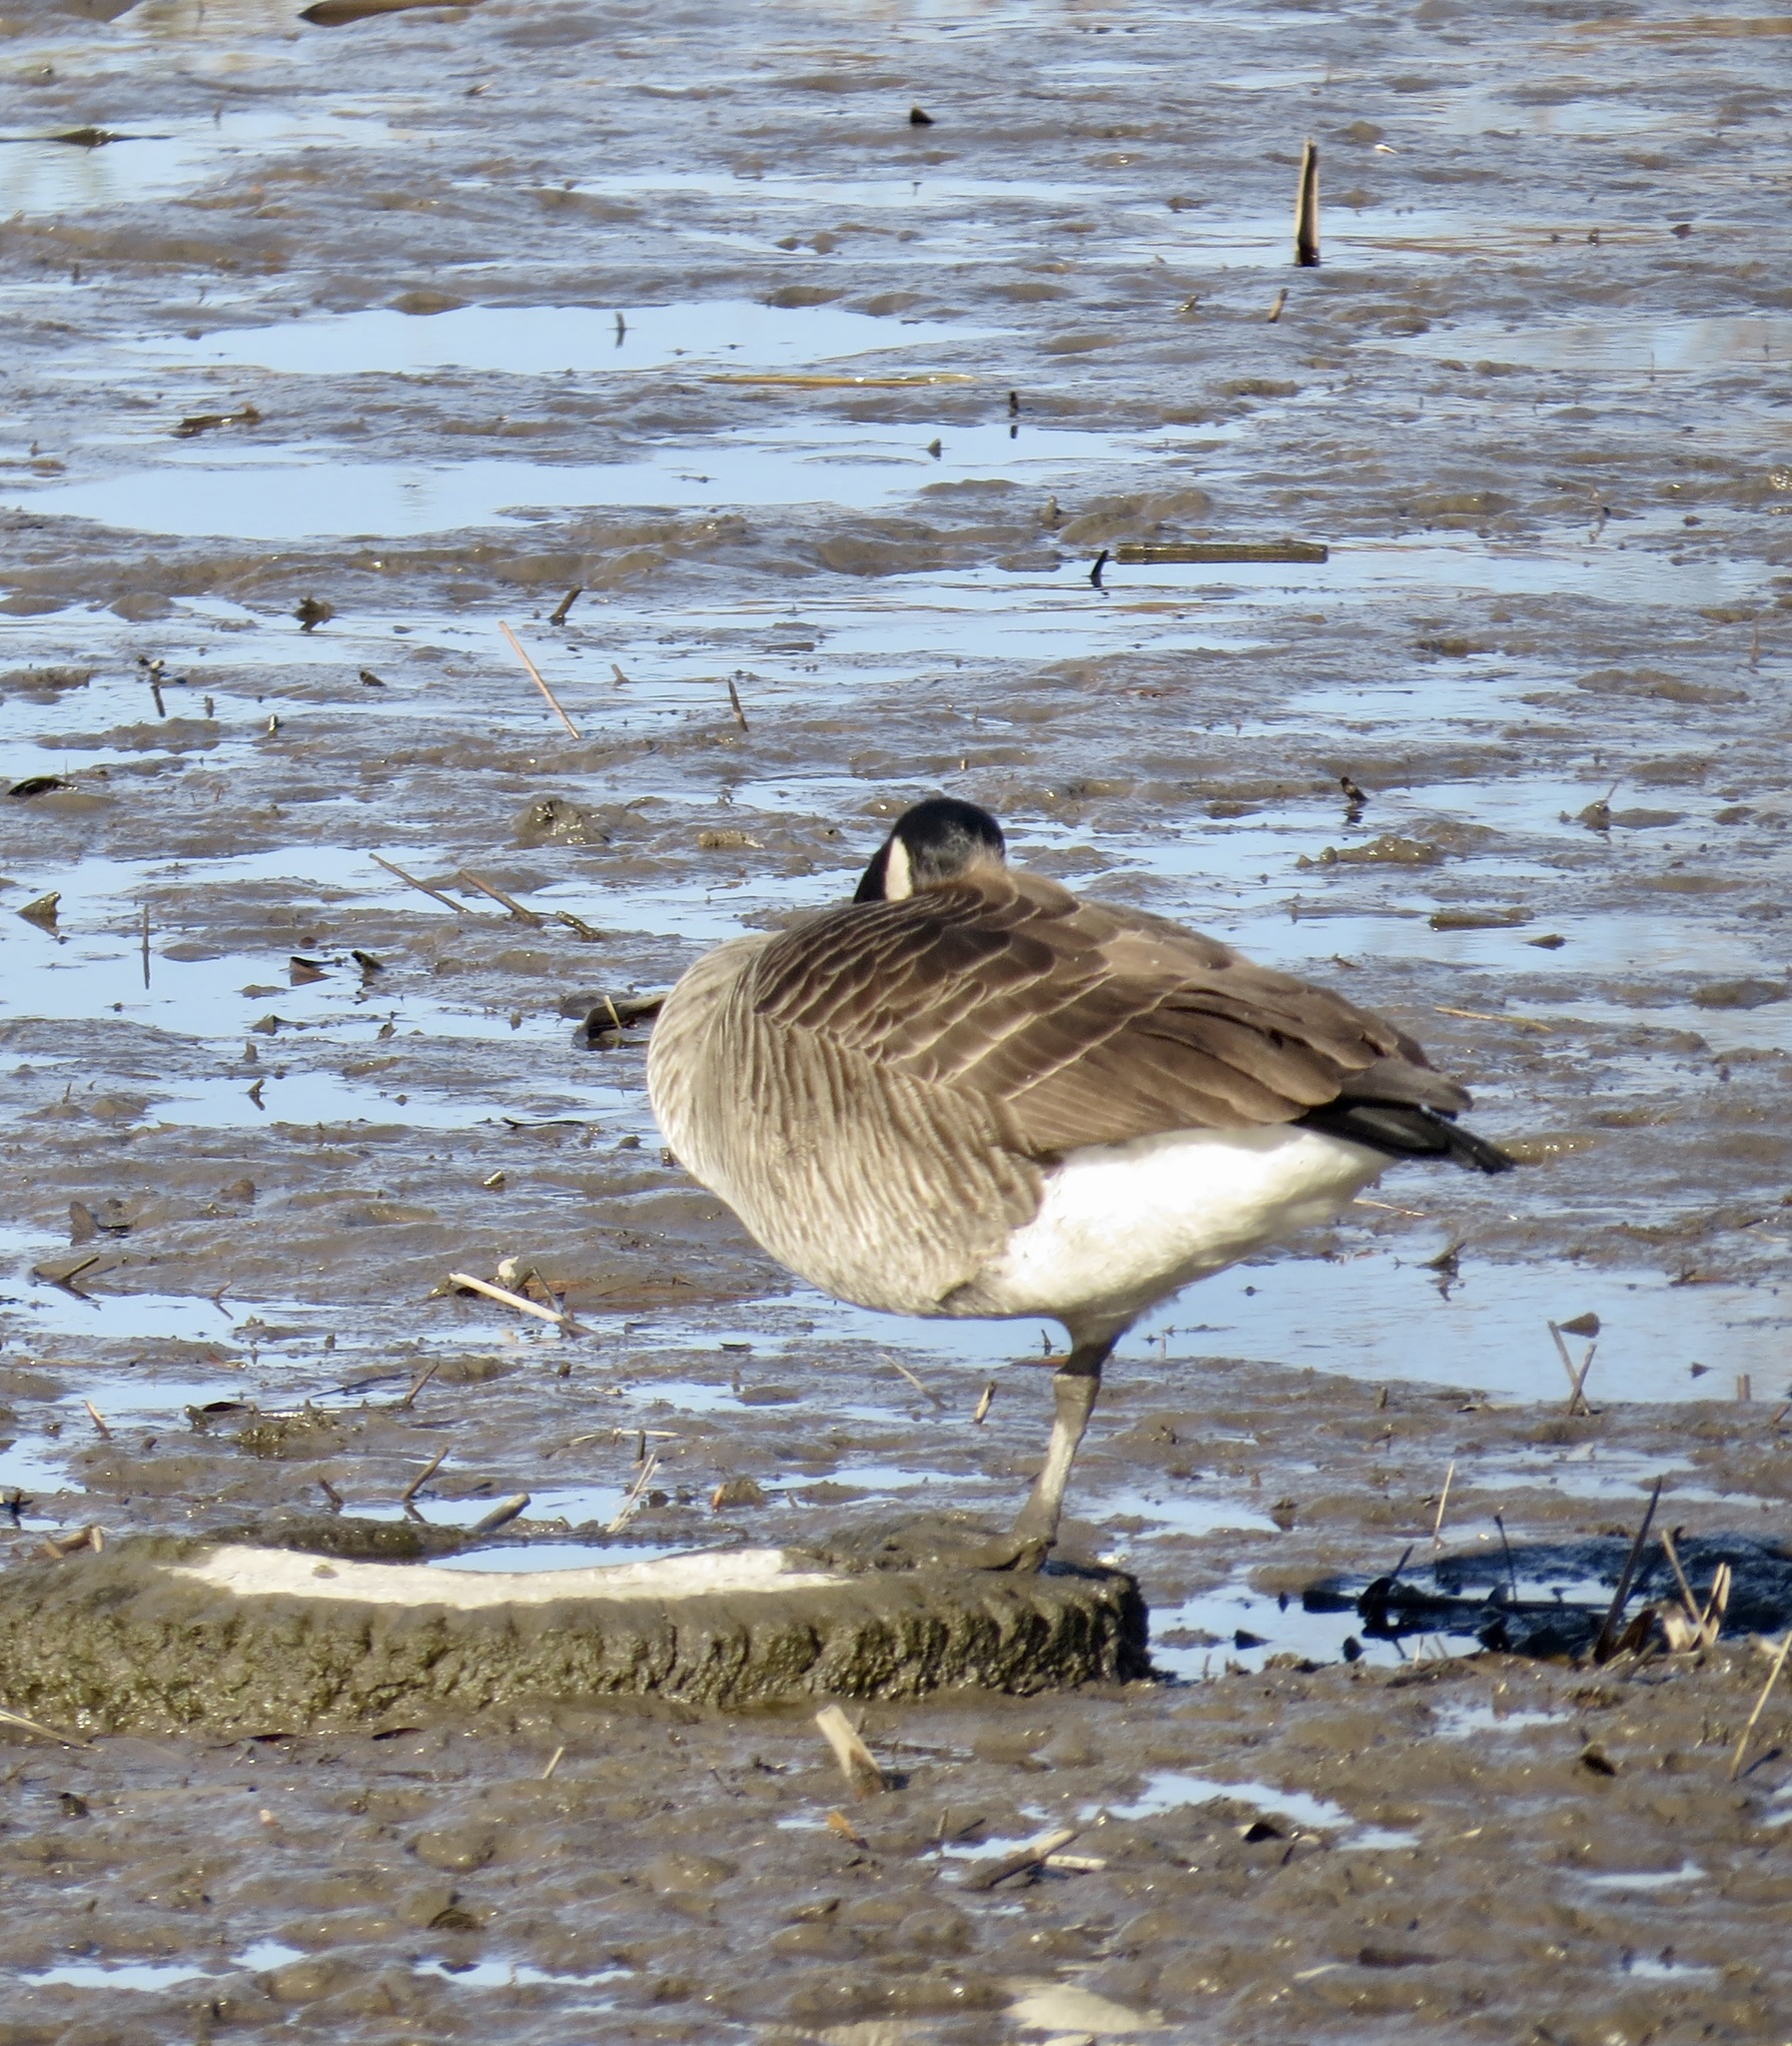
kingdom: Animalia
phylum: Chordata
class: Aves
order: Anseriformes
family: Anatidae
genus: Branta
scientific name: Branta canadensis
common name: Canada goose
